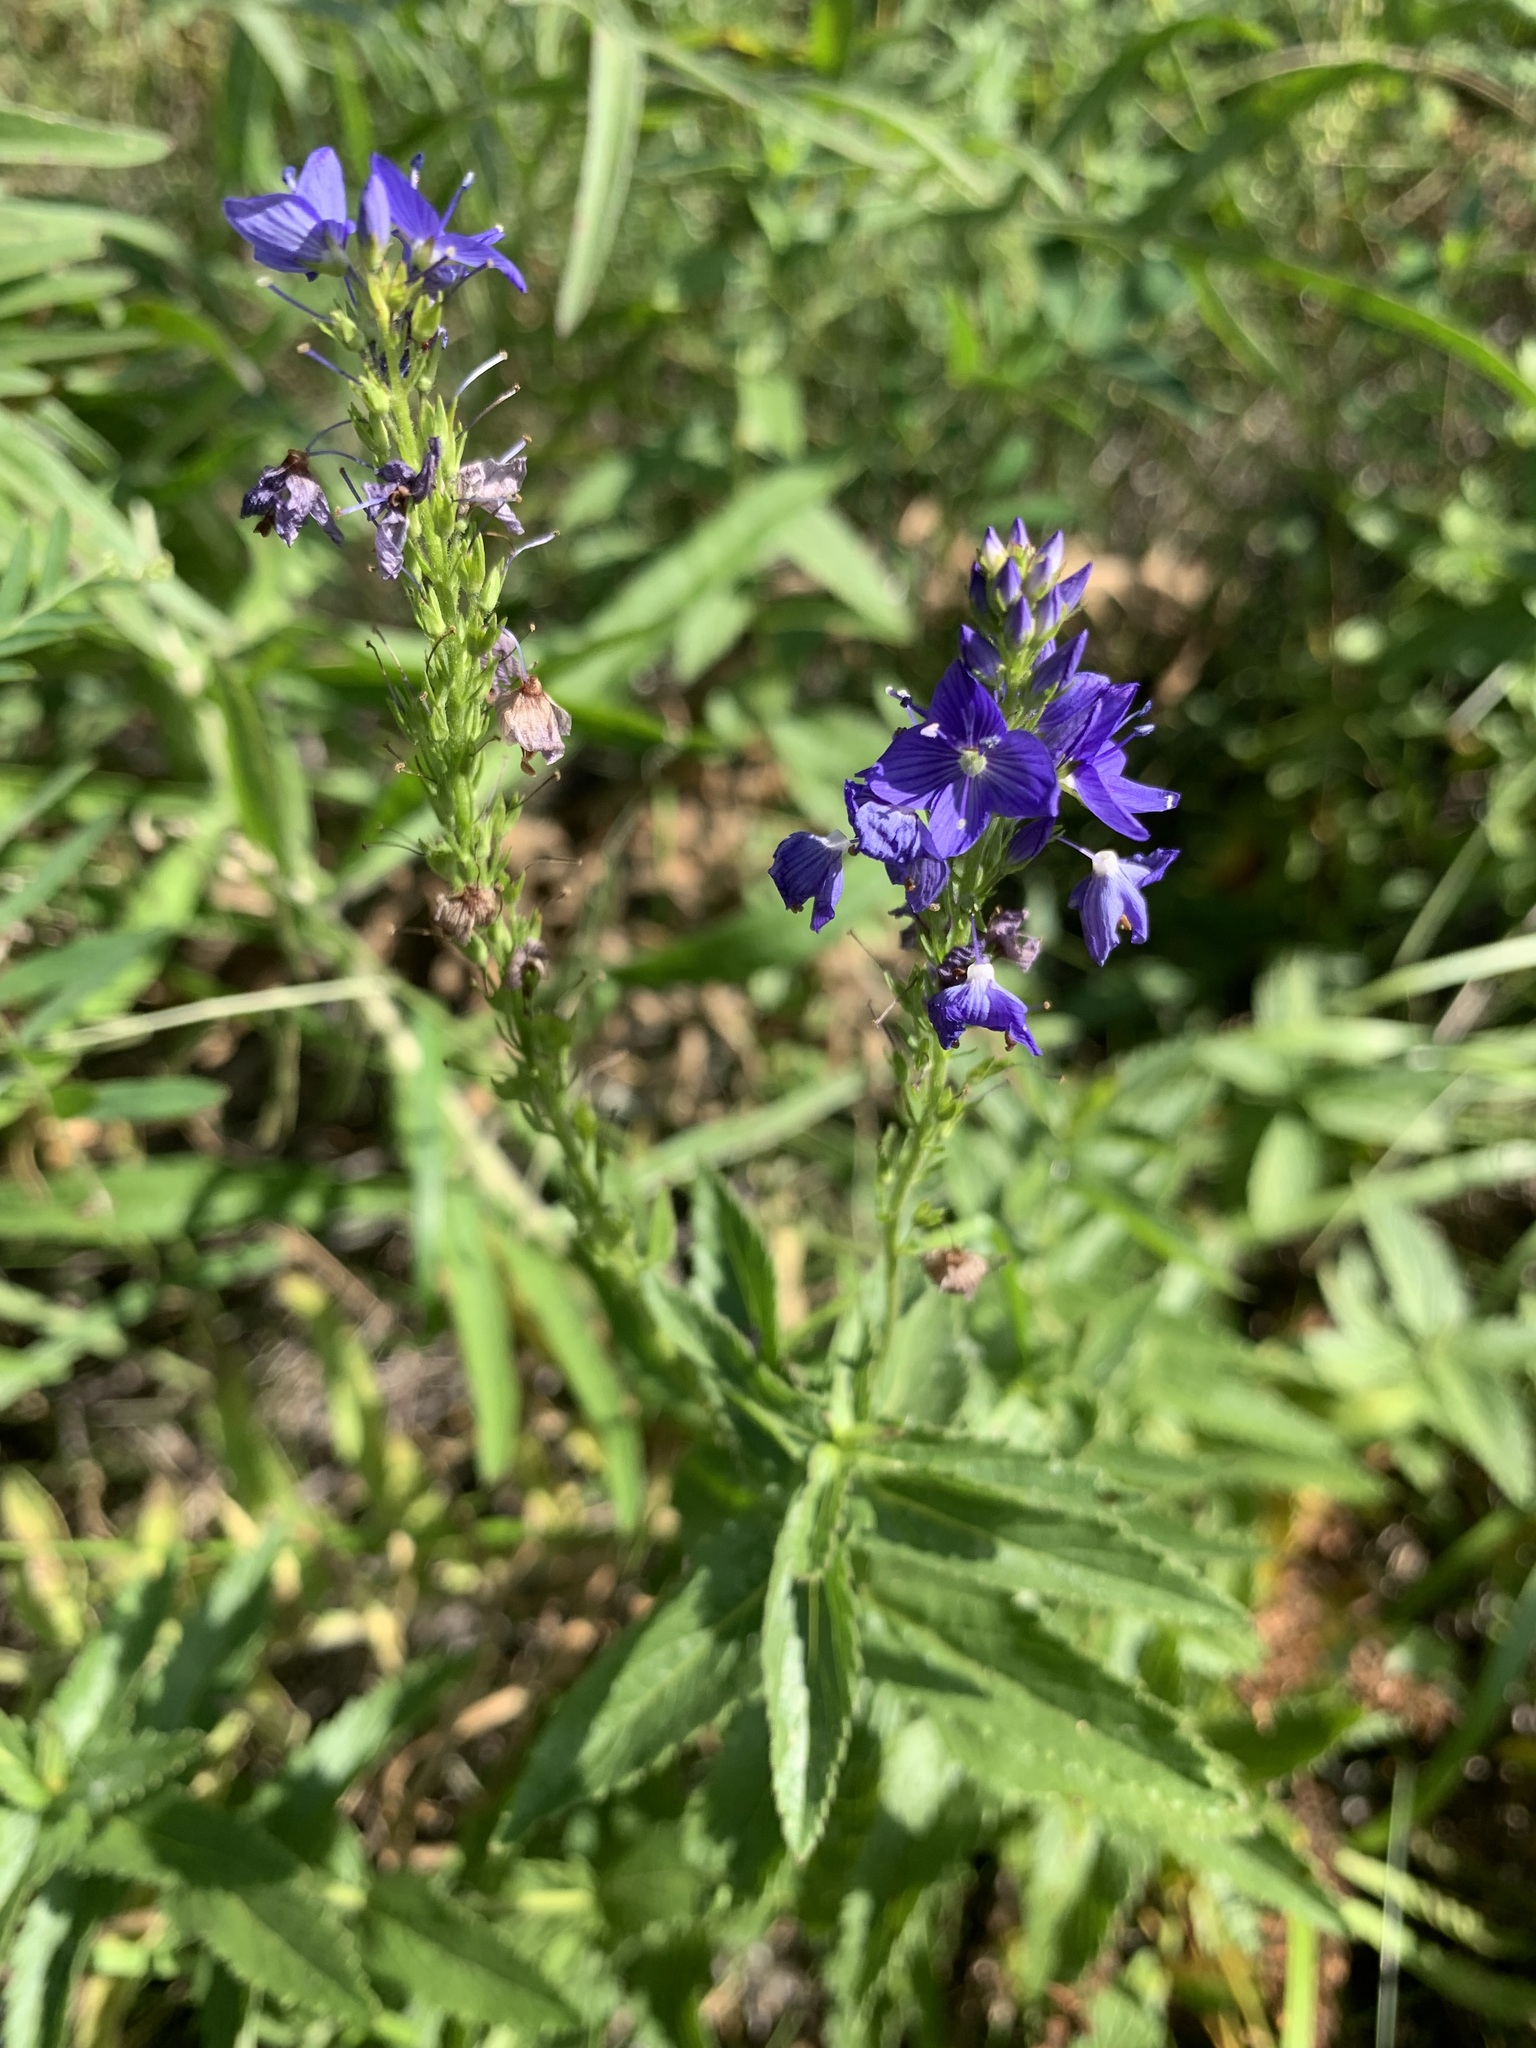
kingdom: Plantae
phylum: Tracheophyta
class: Magnoliopsida
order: Lamiales
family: Plantaginaceae
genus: Veronica
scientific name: Veronica teucrium
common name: Large speedwell
